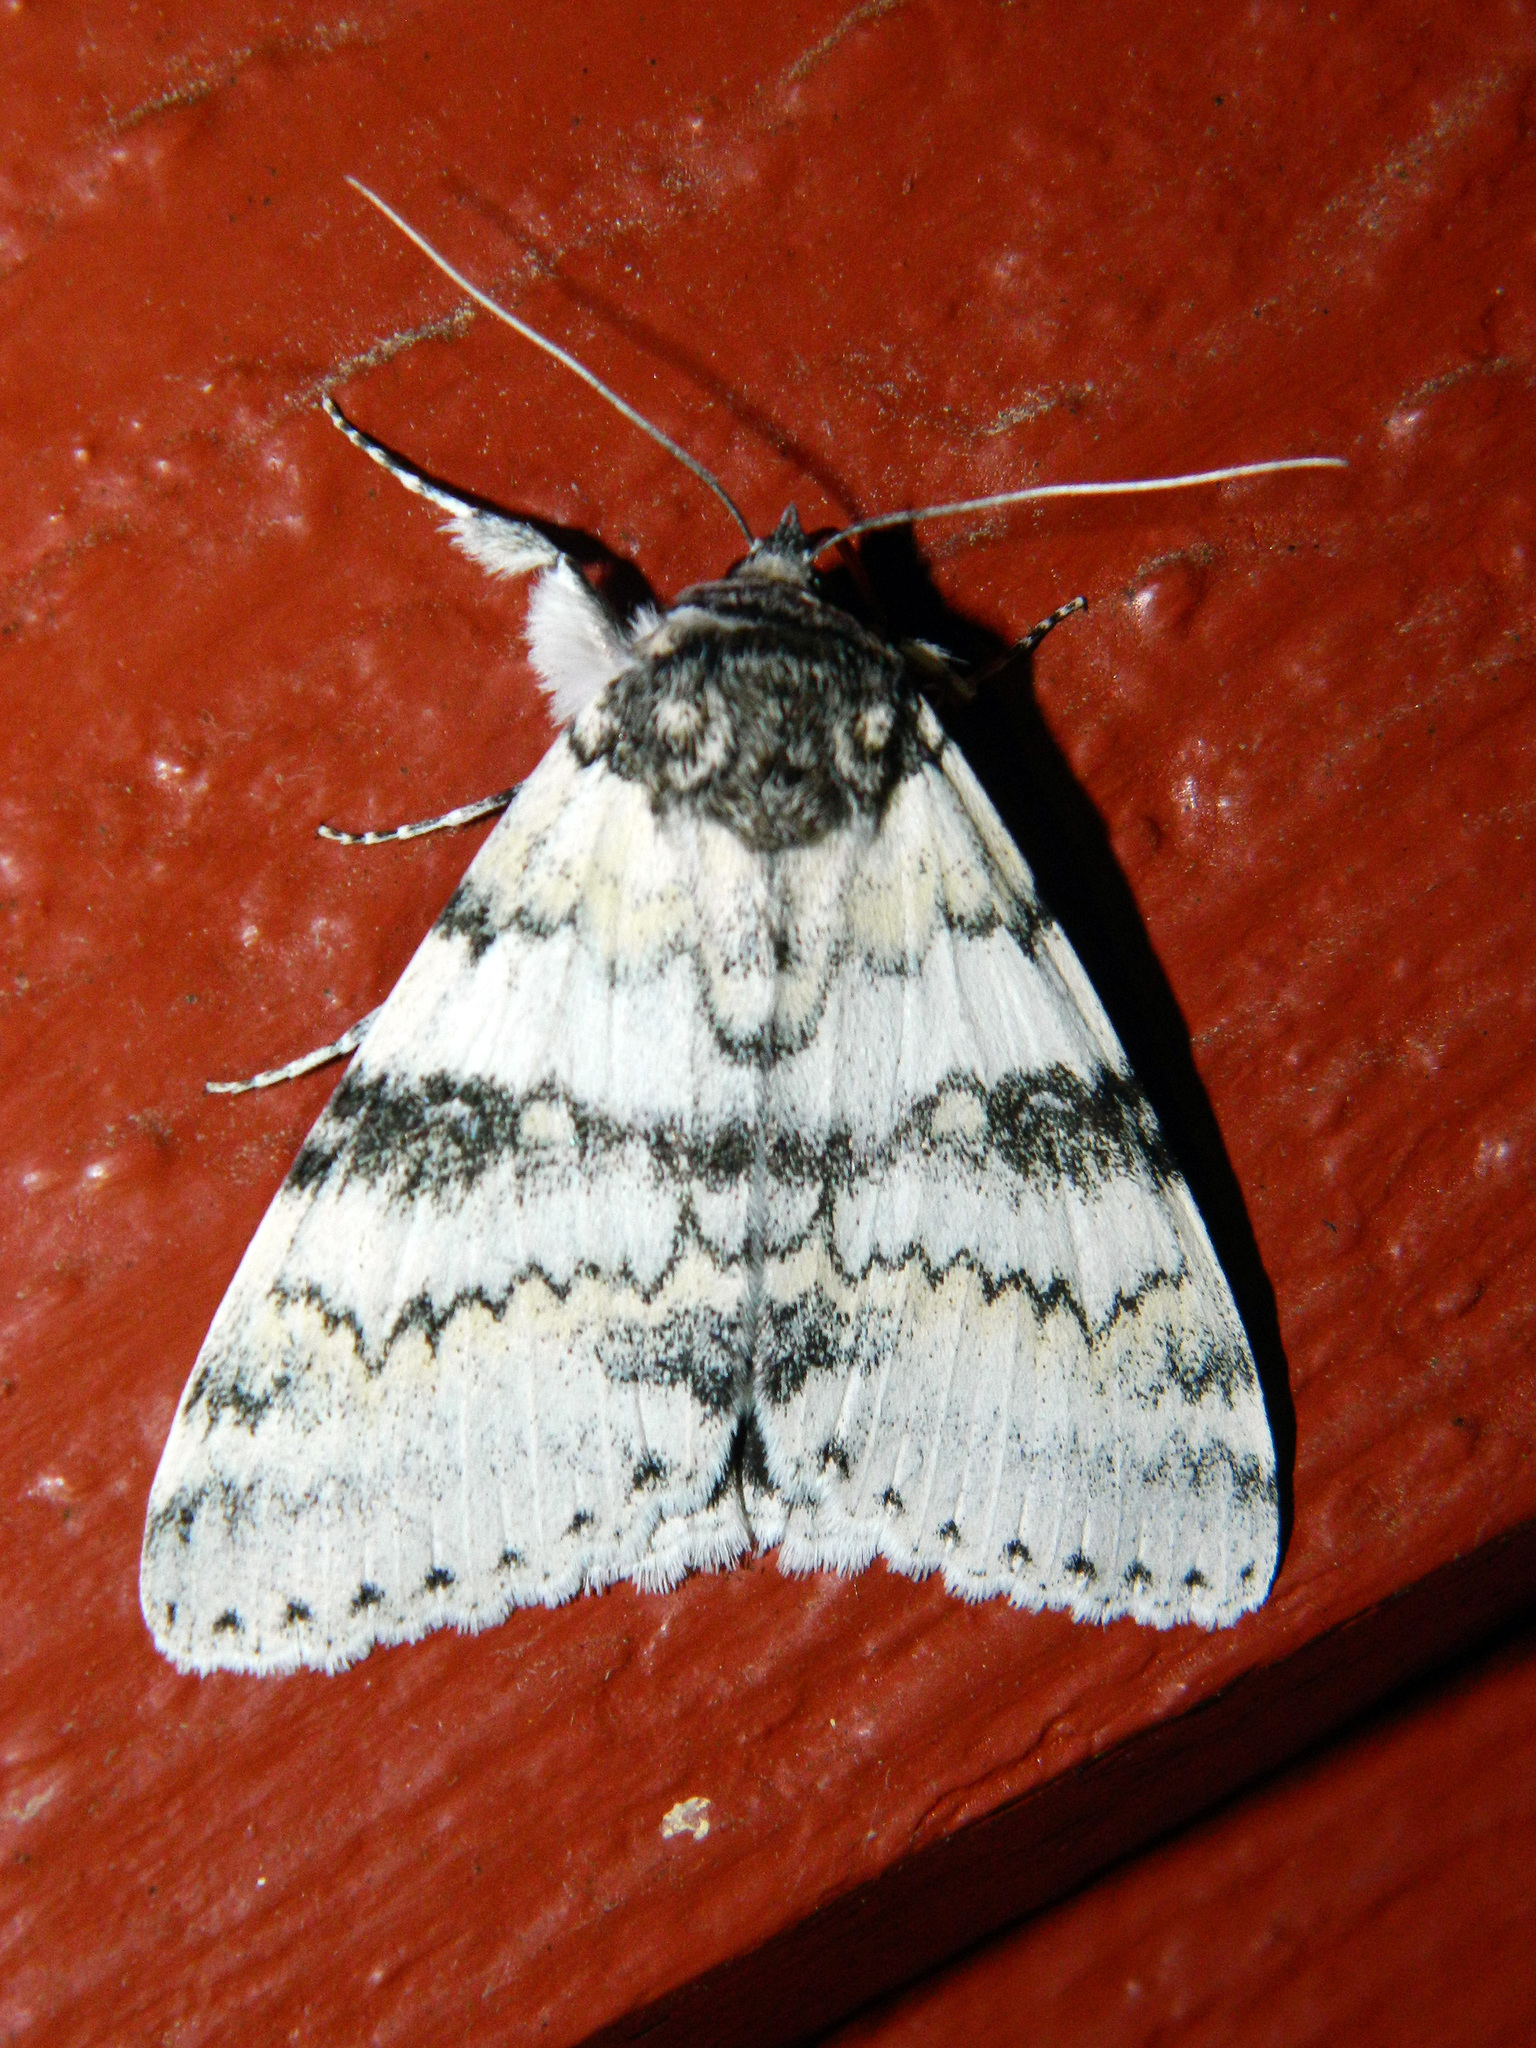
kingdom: Animalia
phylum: Arthropoda
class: Insecta
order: Lepidoptera
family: Erebidae
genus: Catocala
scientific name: Catocala relicta
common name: White underwing
